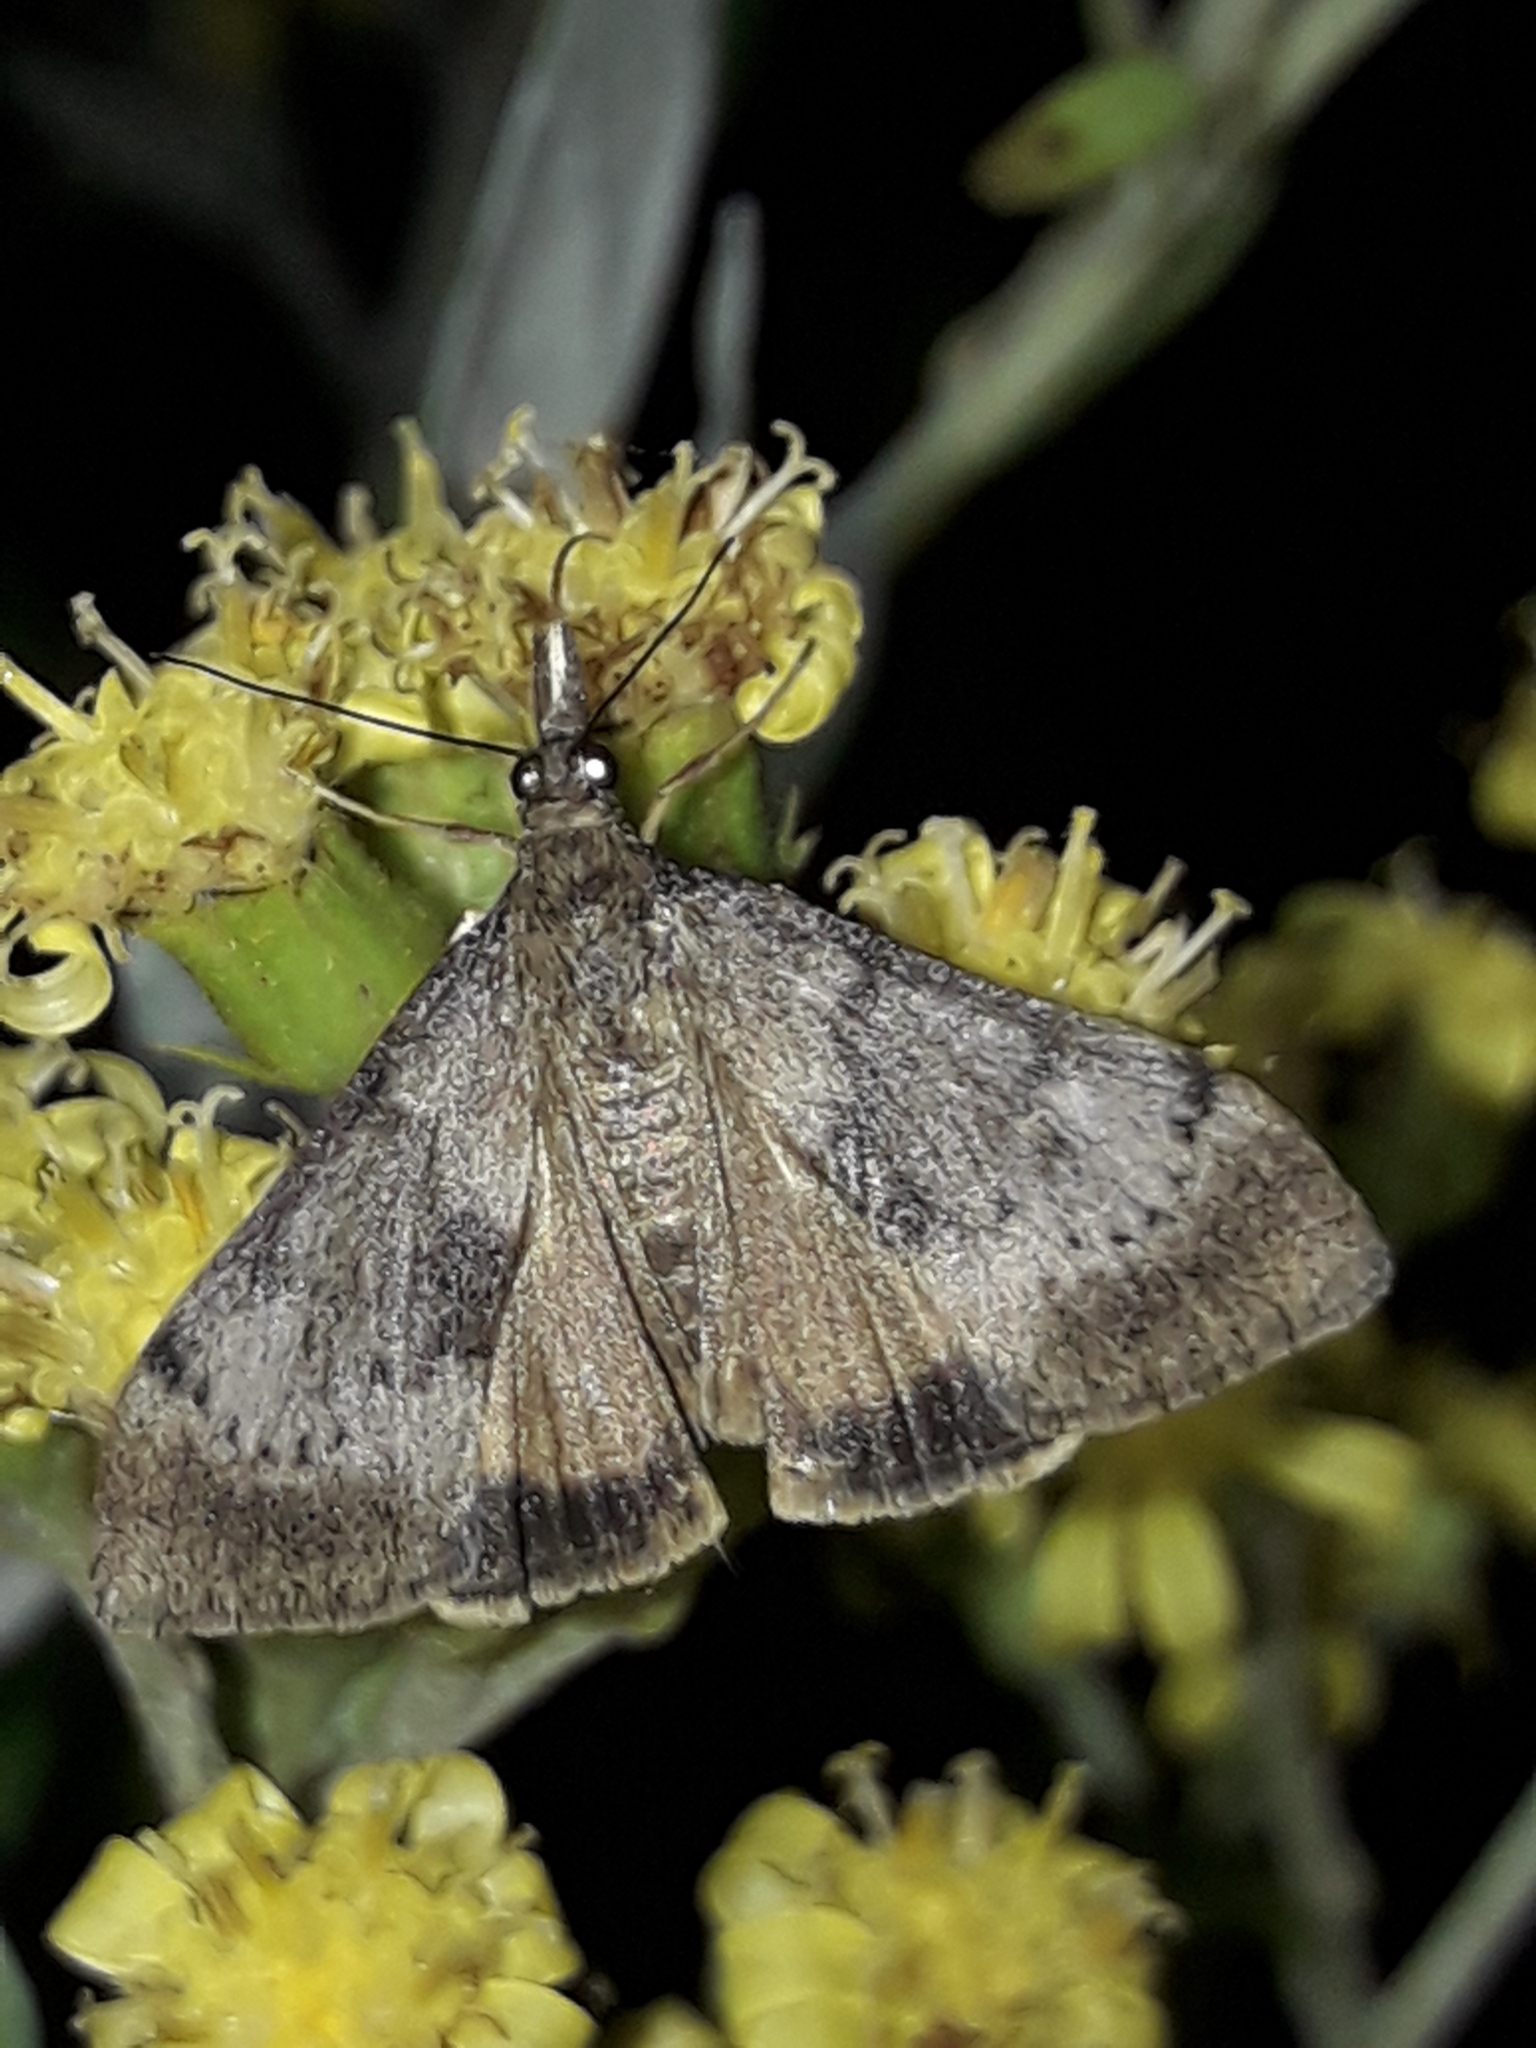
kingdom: Animalia
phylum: Arthropoda
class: Insecta
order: Lepidoptera
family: Crambidae
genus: Uresiphita
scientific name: Uresiphita
